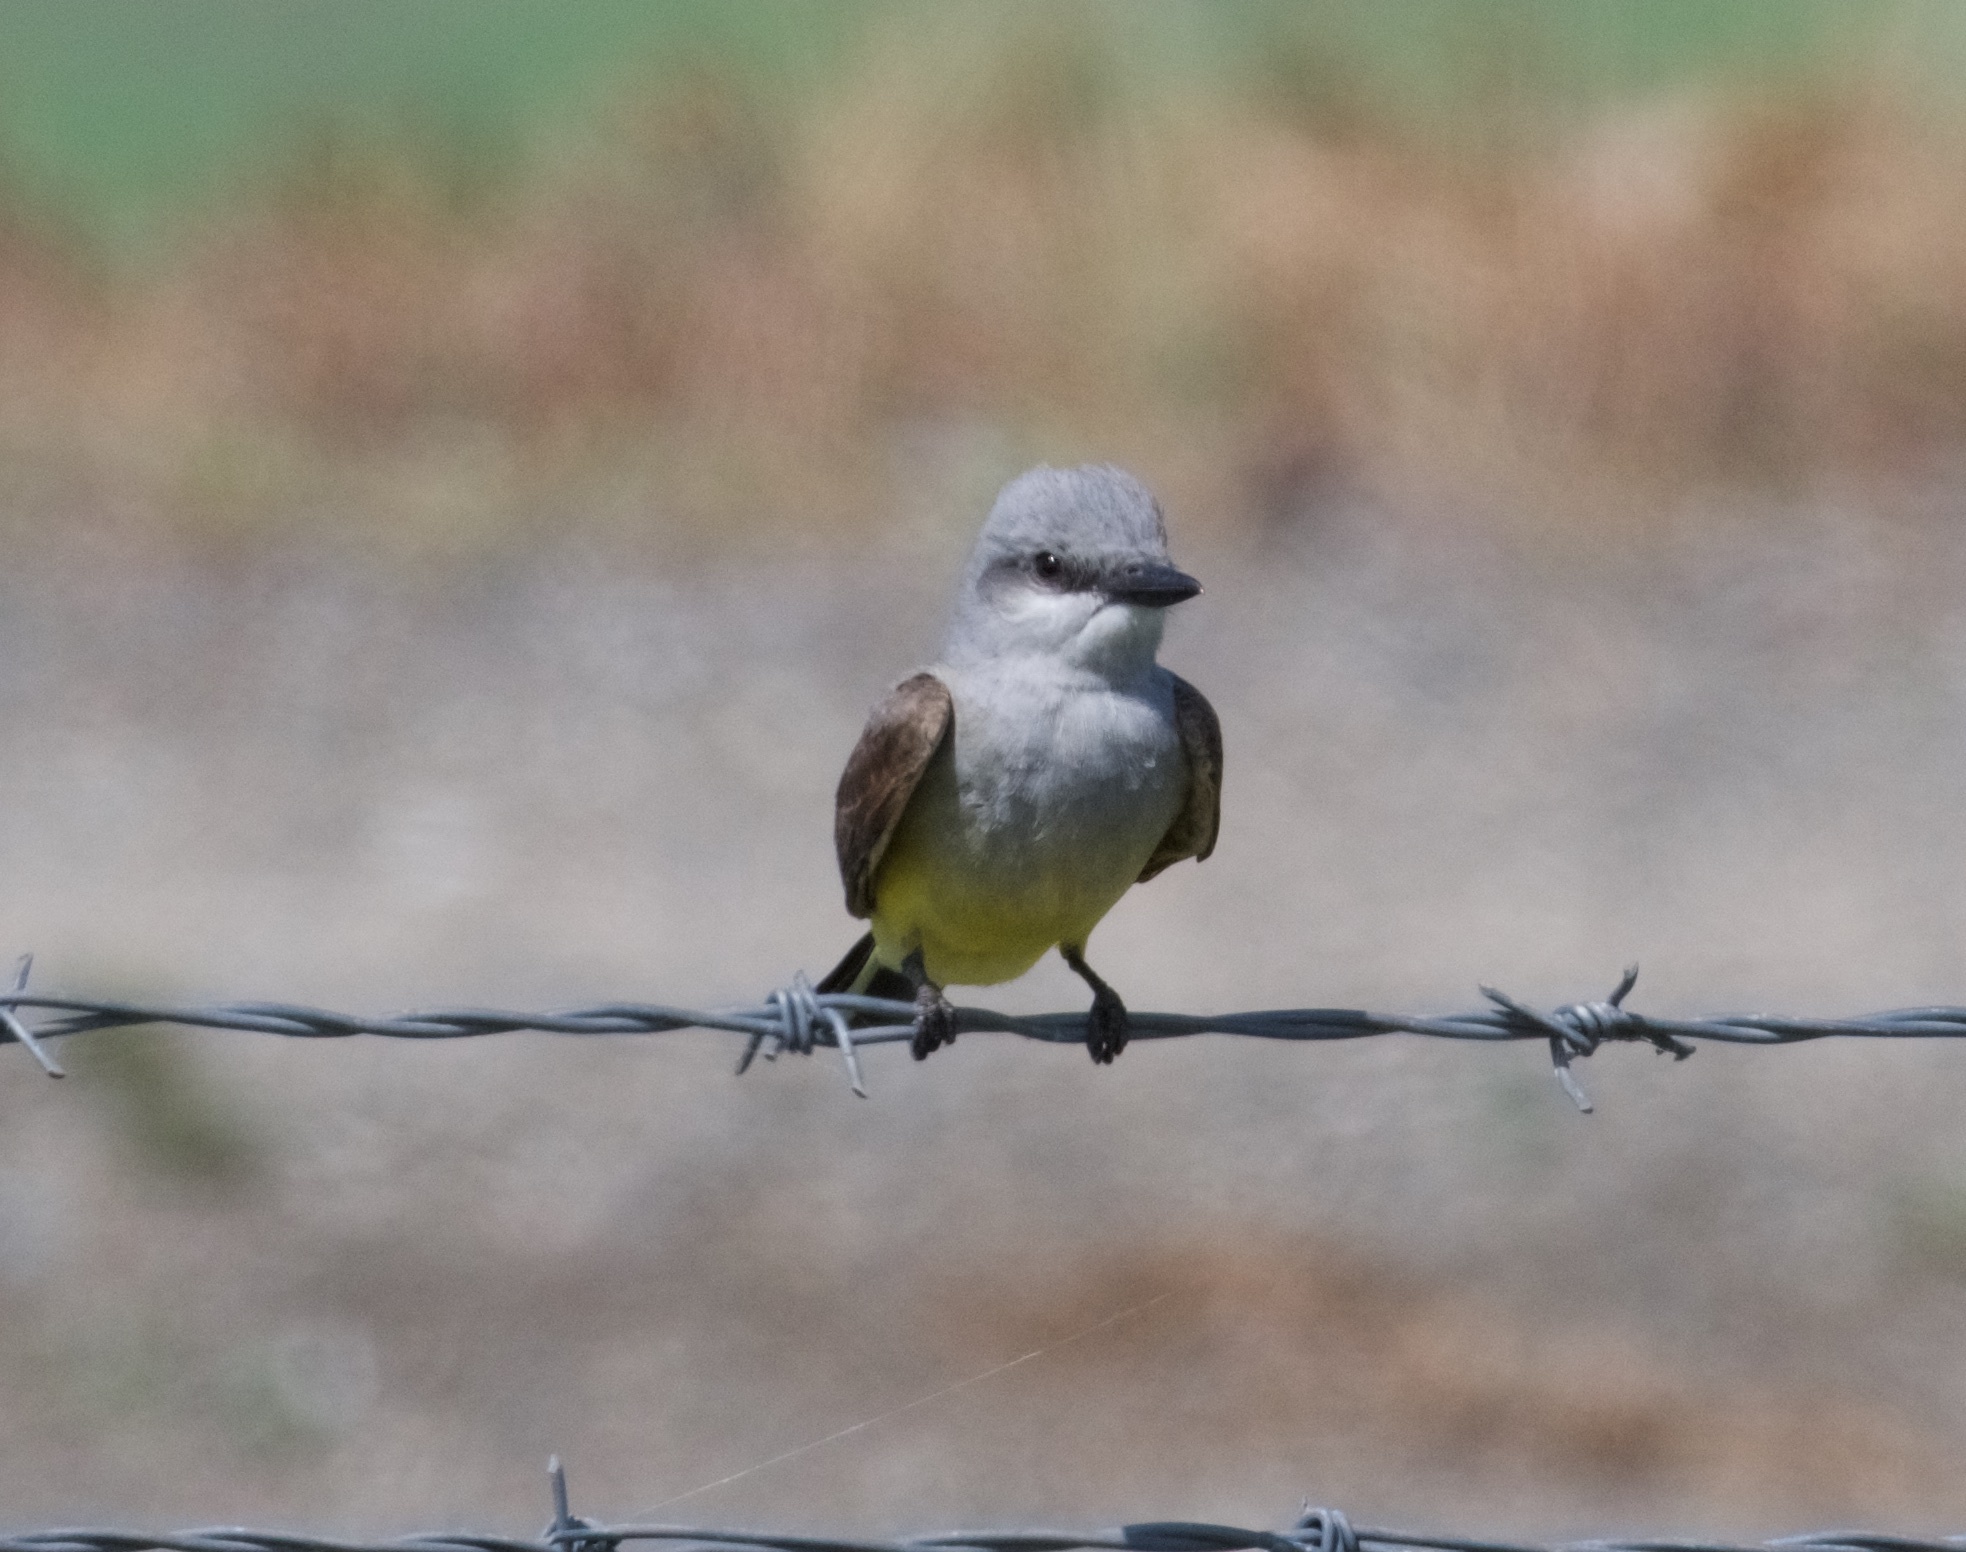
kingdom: Animalia
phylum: Chordata
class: Aves
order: Passeriformes
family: Tyrannidae
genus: Tyrannus
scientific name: Tyrannus verticalis
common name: Western kingbird
